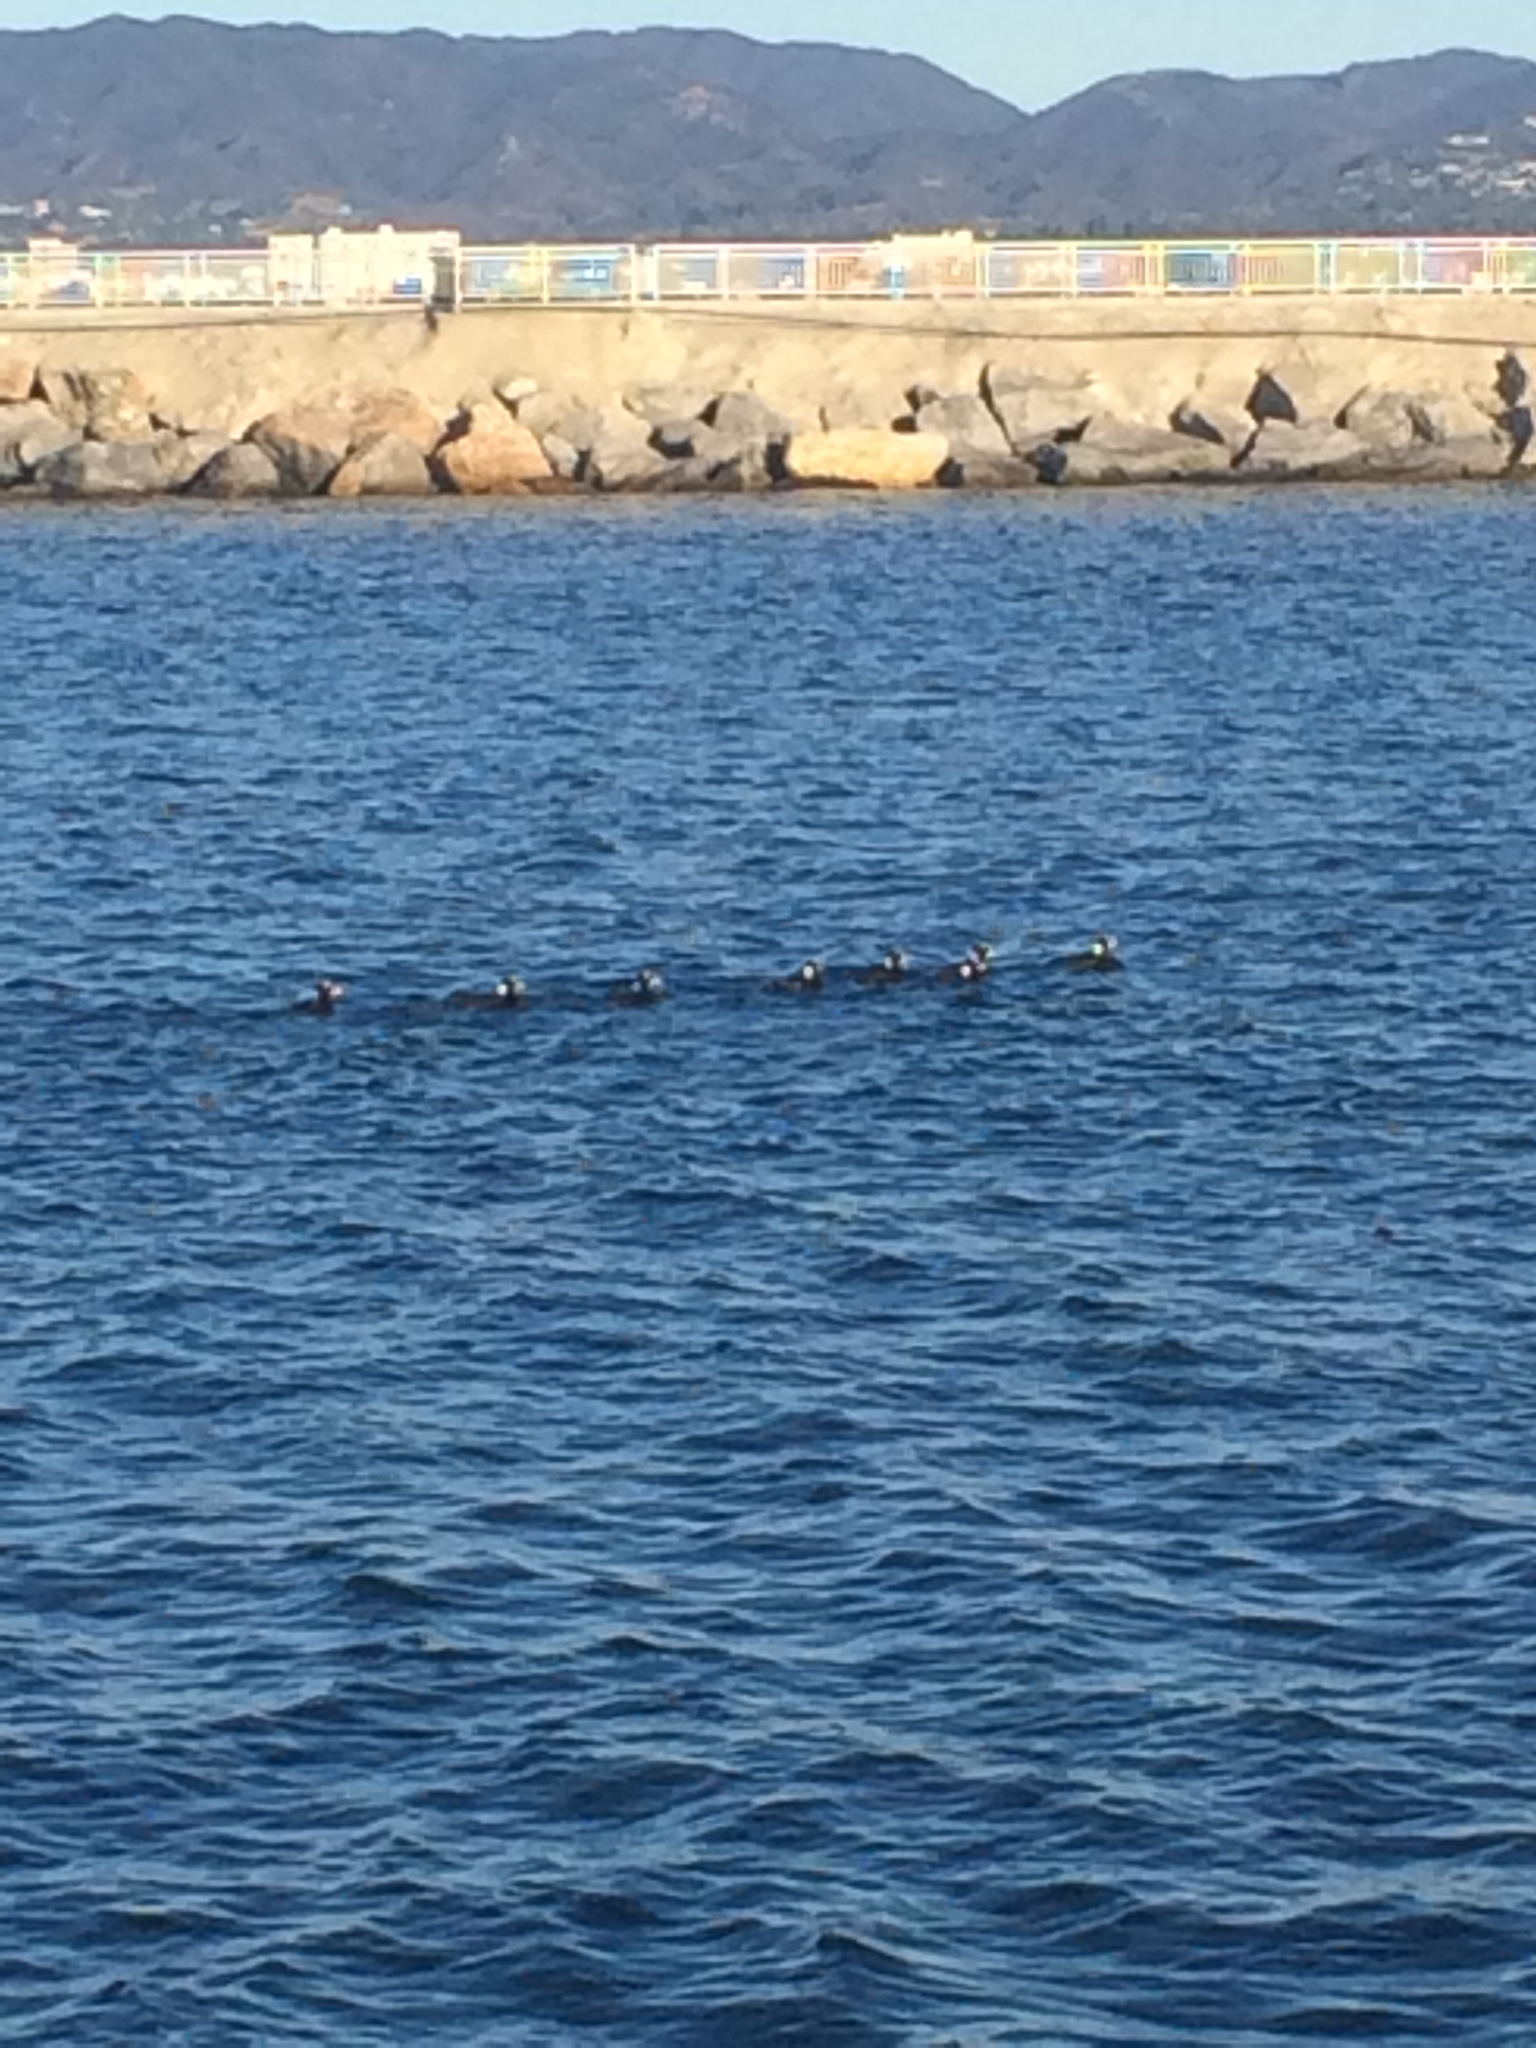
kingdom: Animalia
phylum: Chordata
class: Aves
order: Anseriformes
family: Anatidae
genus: Melanitta
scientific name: Melanitta perspicillata
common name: Surf scoter
